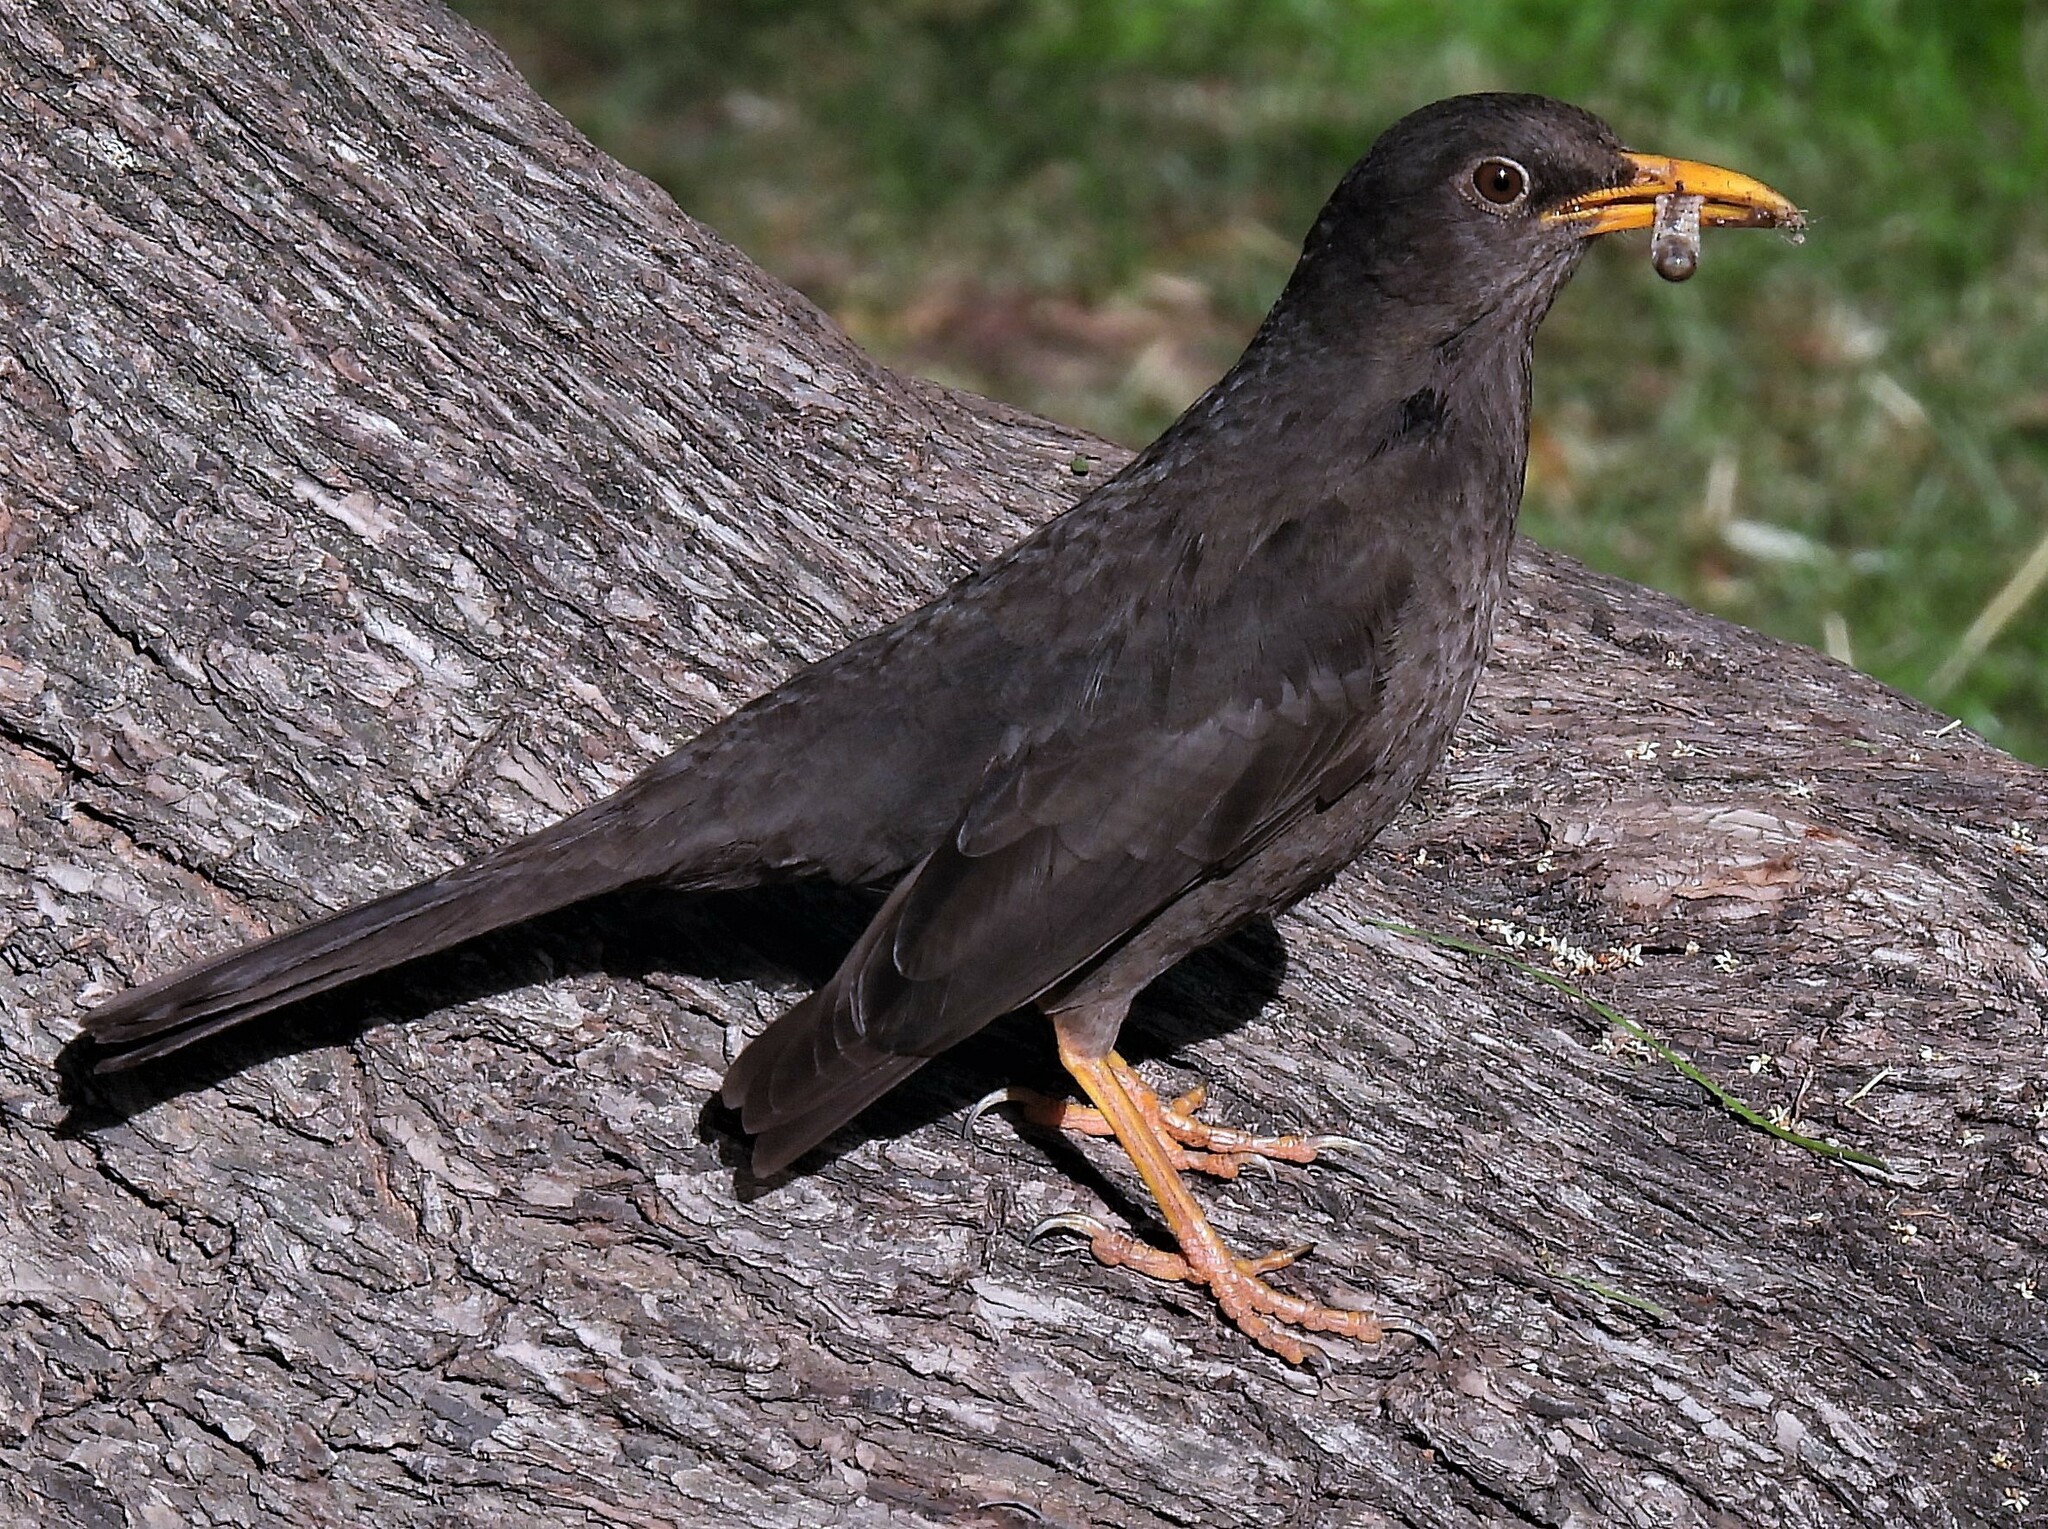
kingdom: Animalia
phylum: Chordata
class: Aves
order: Passeriformes
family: Turdidae
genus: Turdus
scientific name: Turdus chiguanco
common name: Chiguanco thrush
